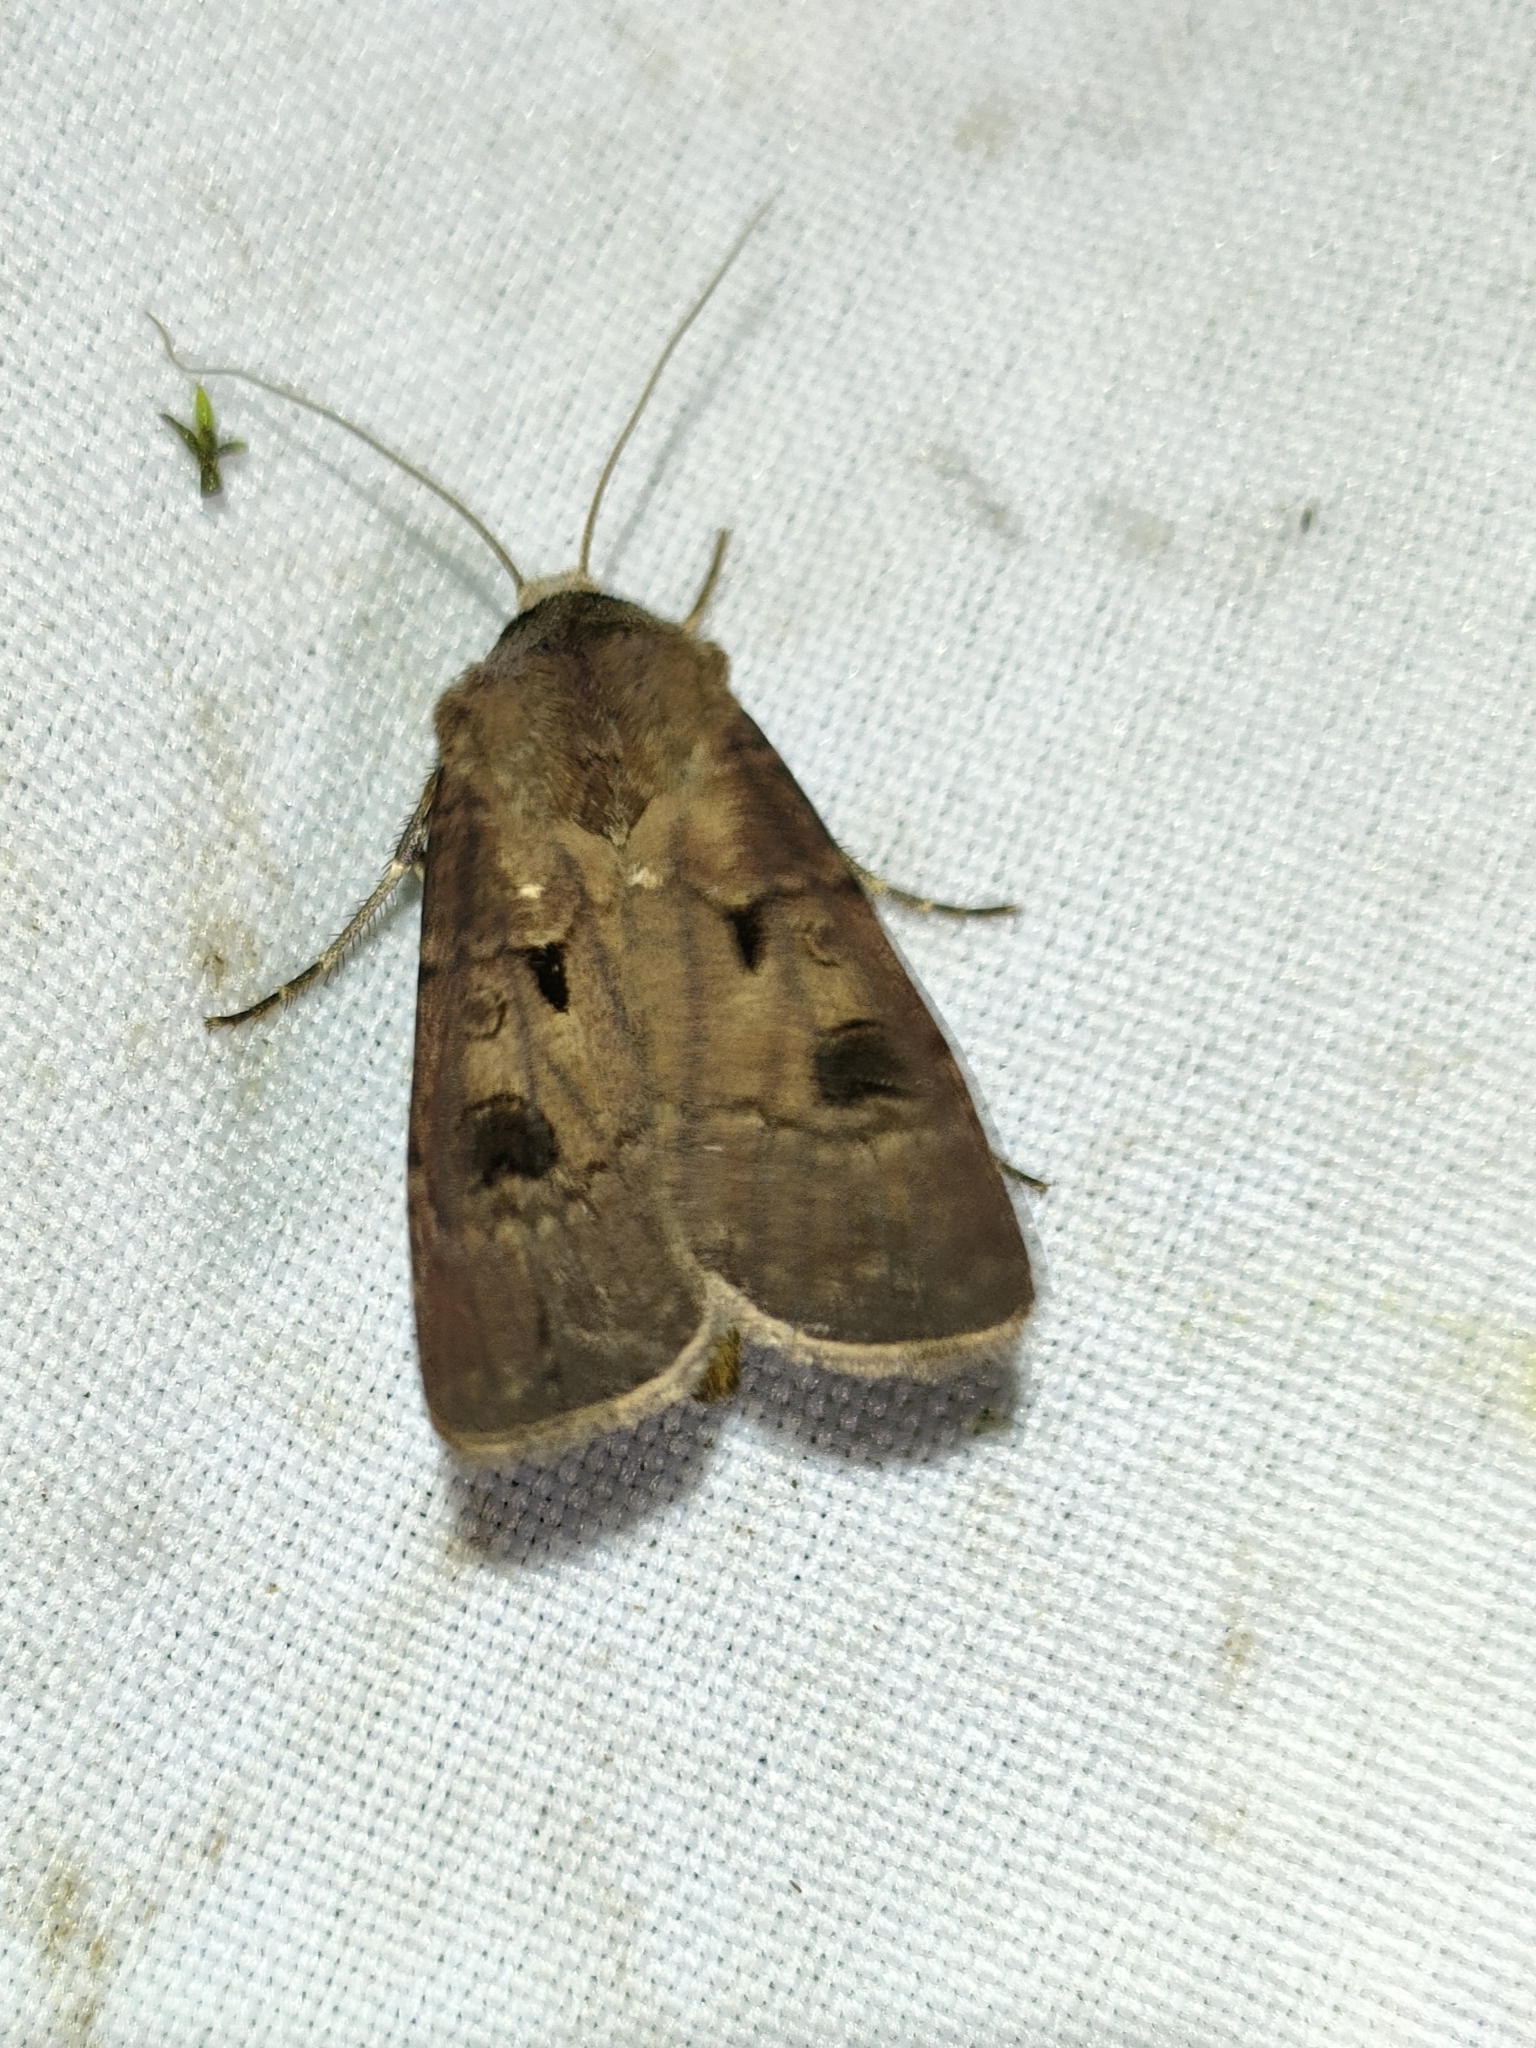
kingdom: Animalia
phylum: Arthropoda
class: Insecta
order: Lepidoptera
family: Noctuidae
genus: Agrotis
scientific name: Agrotis exclamationis
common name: Heart and dart
